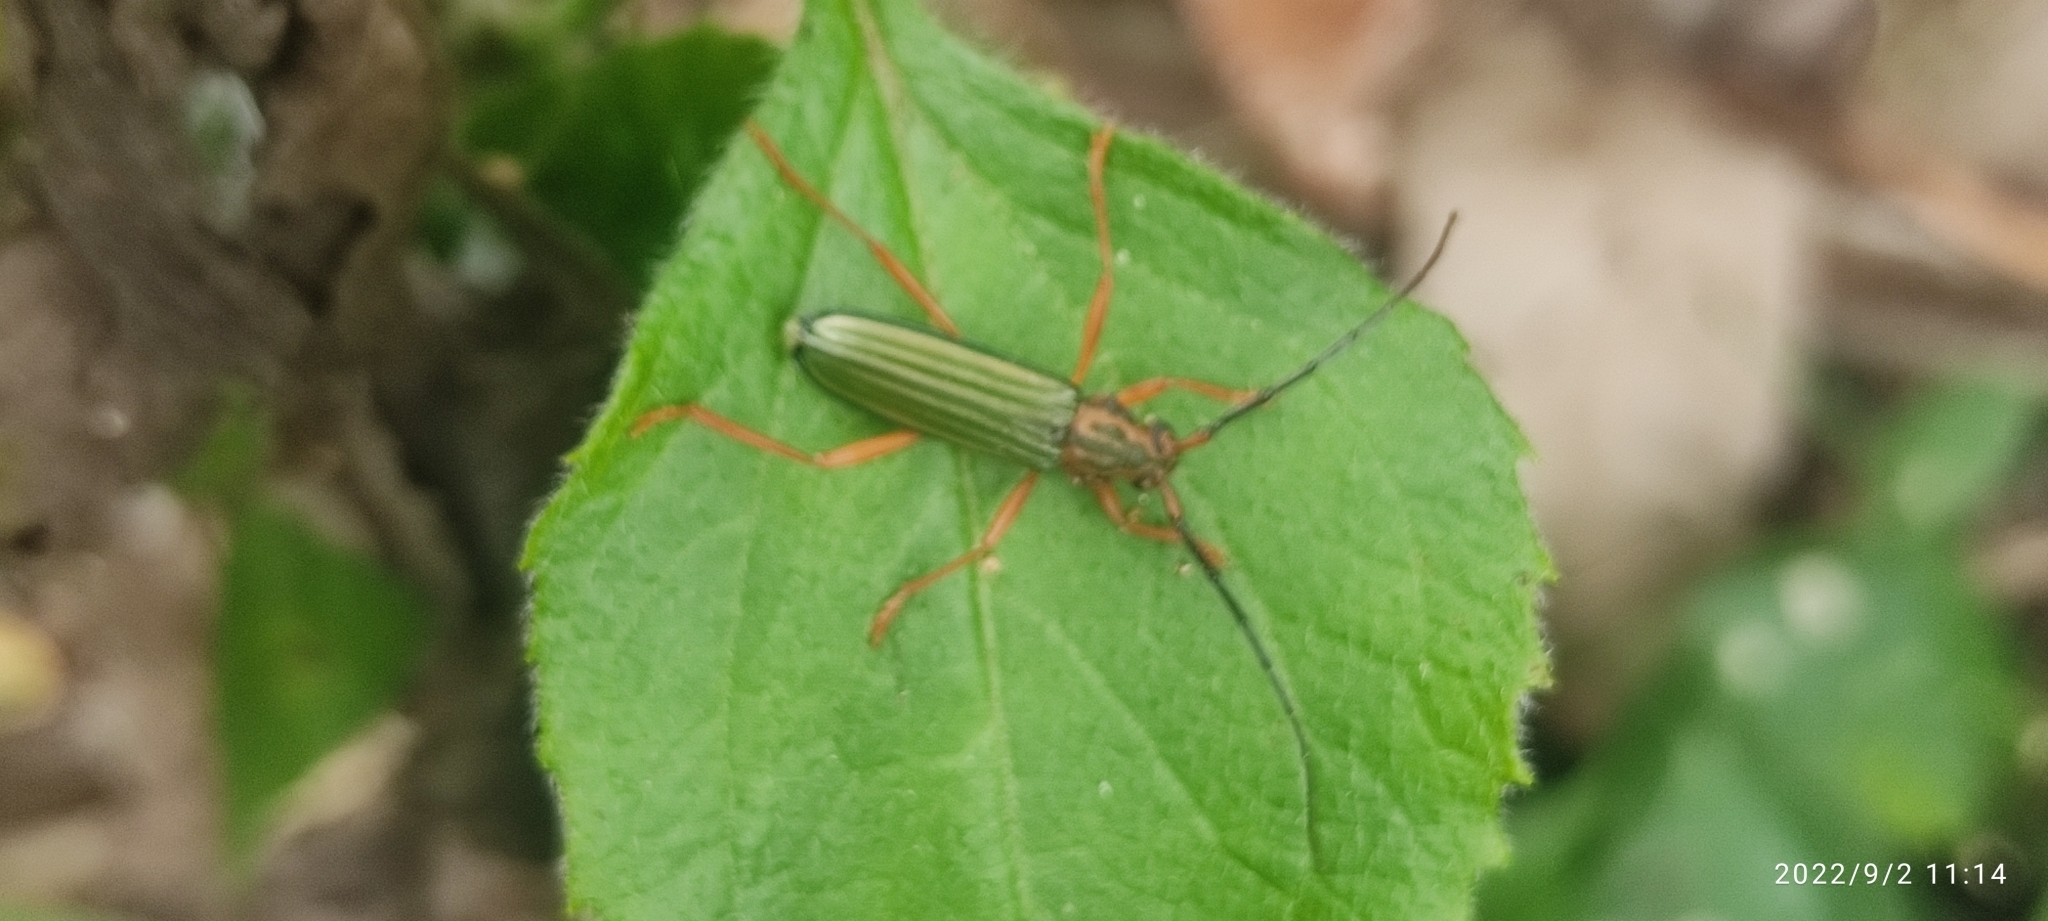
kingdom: Animalia
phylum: Arthropoda
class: Insecta
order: Coleoptera
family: Cerambycidae
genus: Chlorida
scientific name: Chlorida festiva
